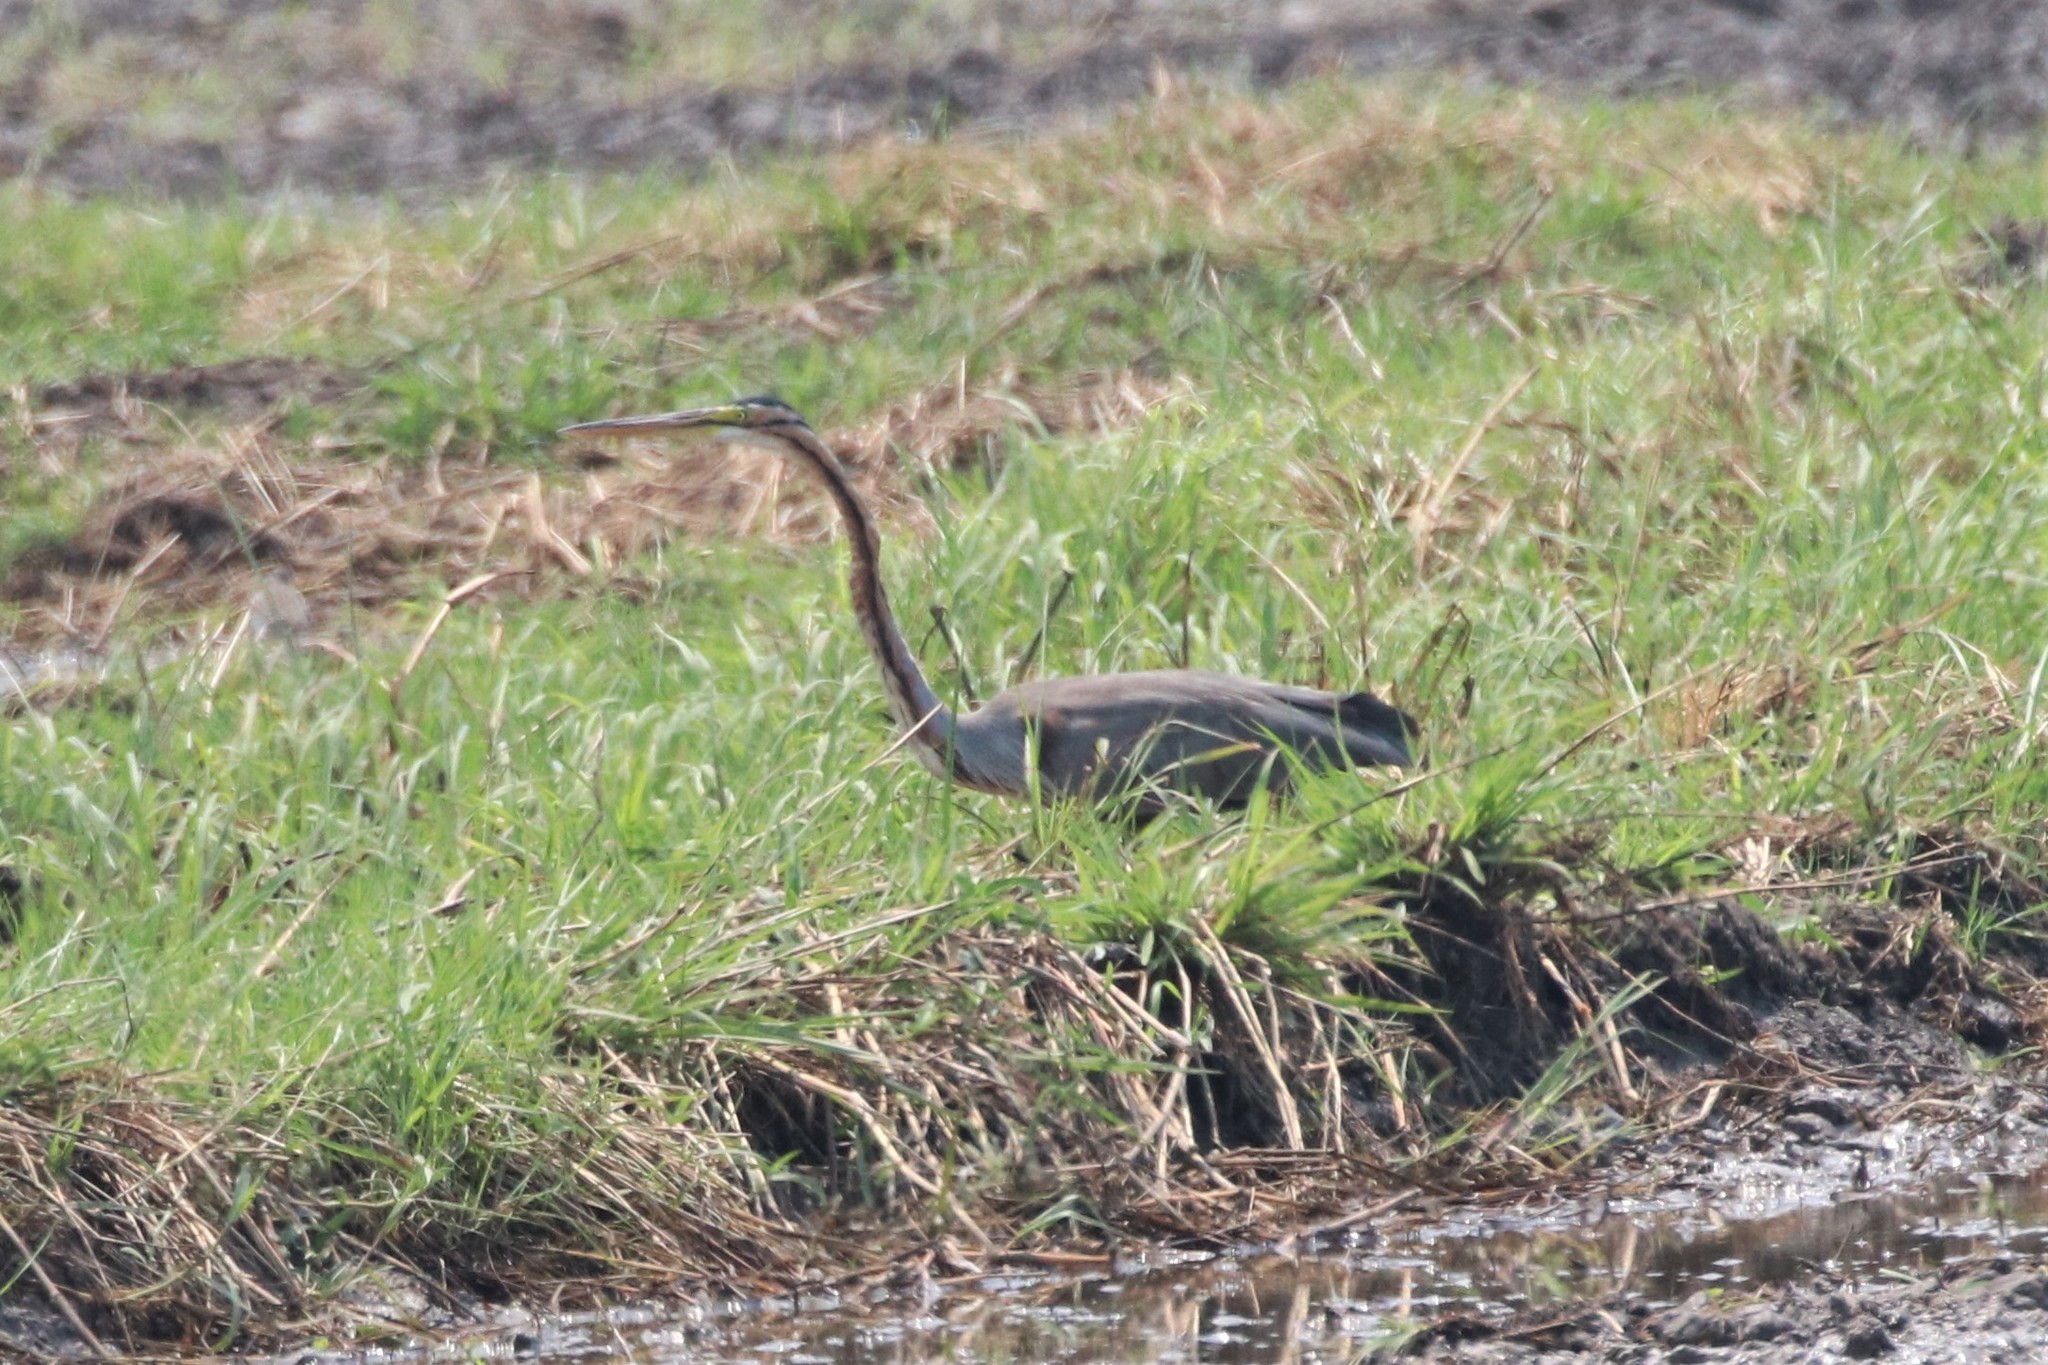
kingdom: Animalia
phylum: Chordata
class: Aves
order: Pelecaniformes
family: Ardeidae
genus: Ardea
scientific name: Ardea purpurea
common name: Purple heron
